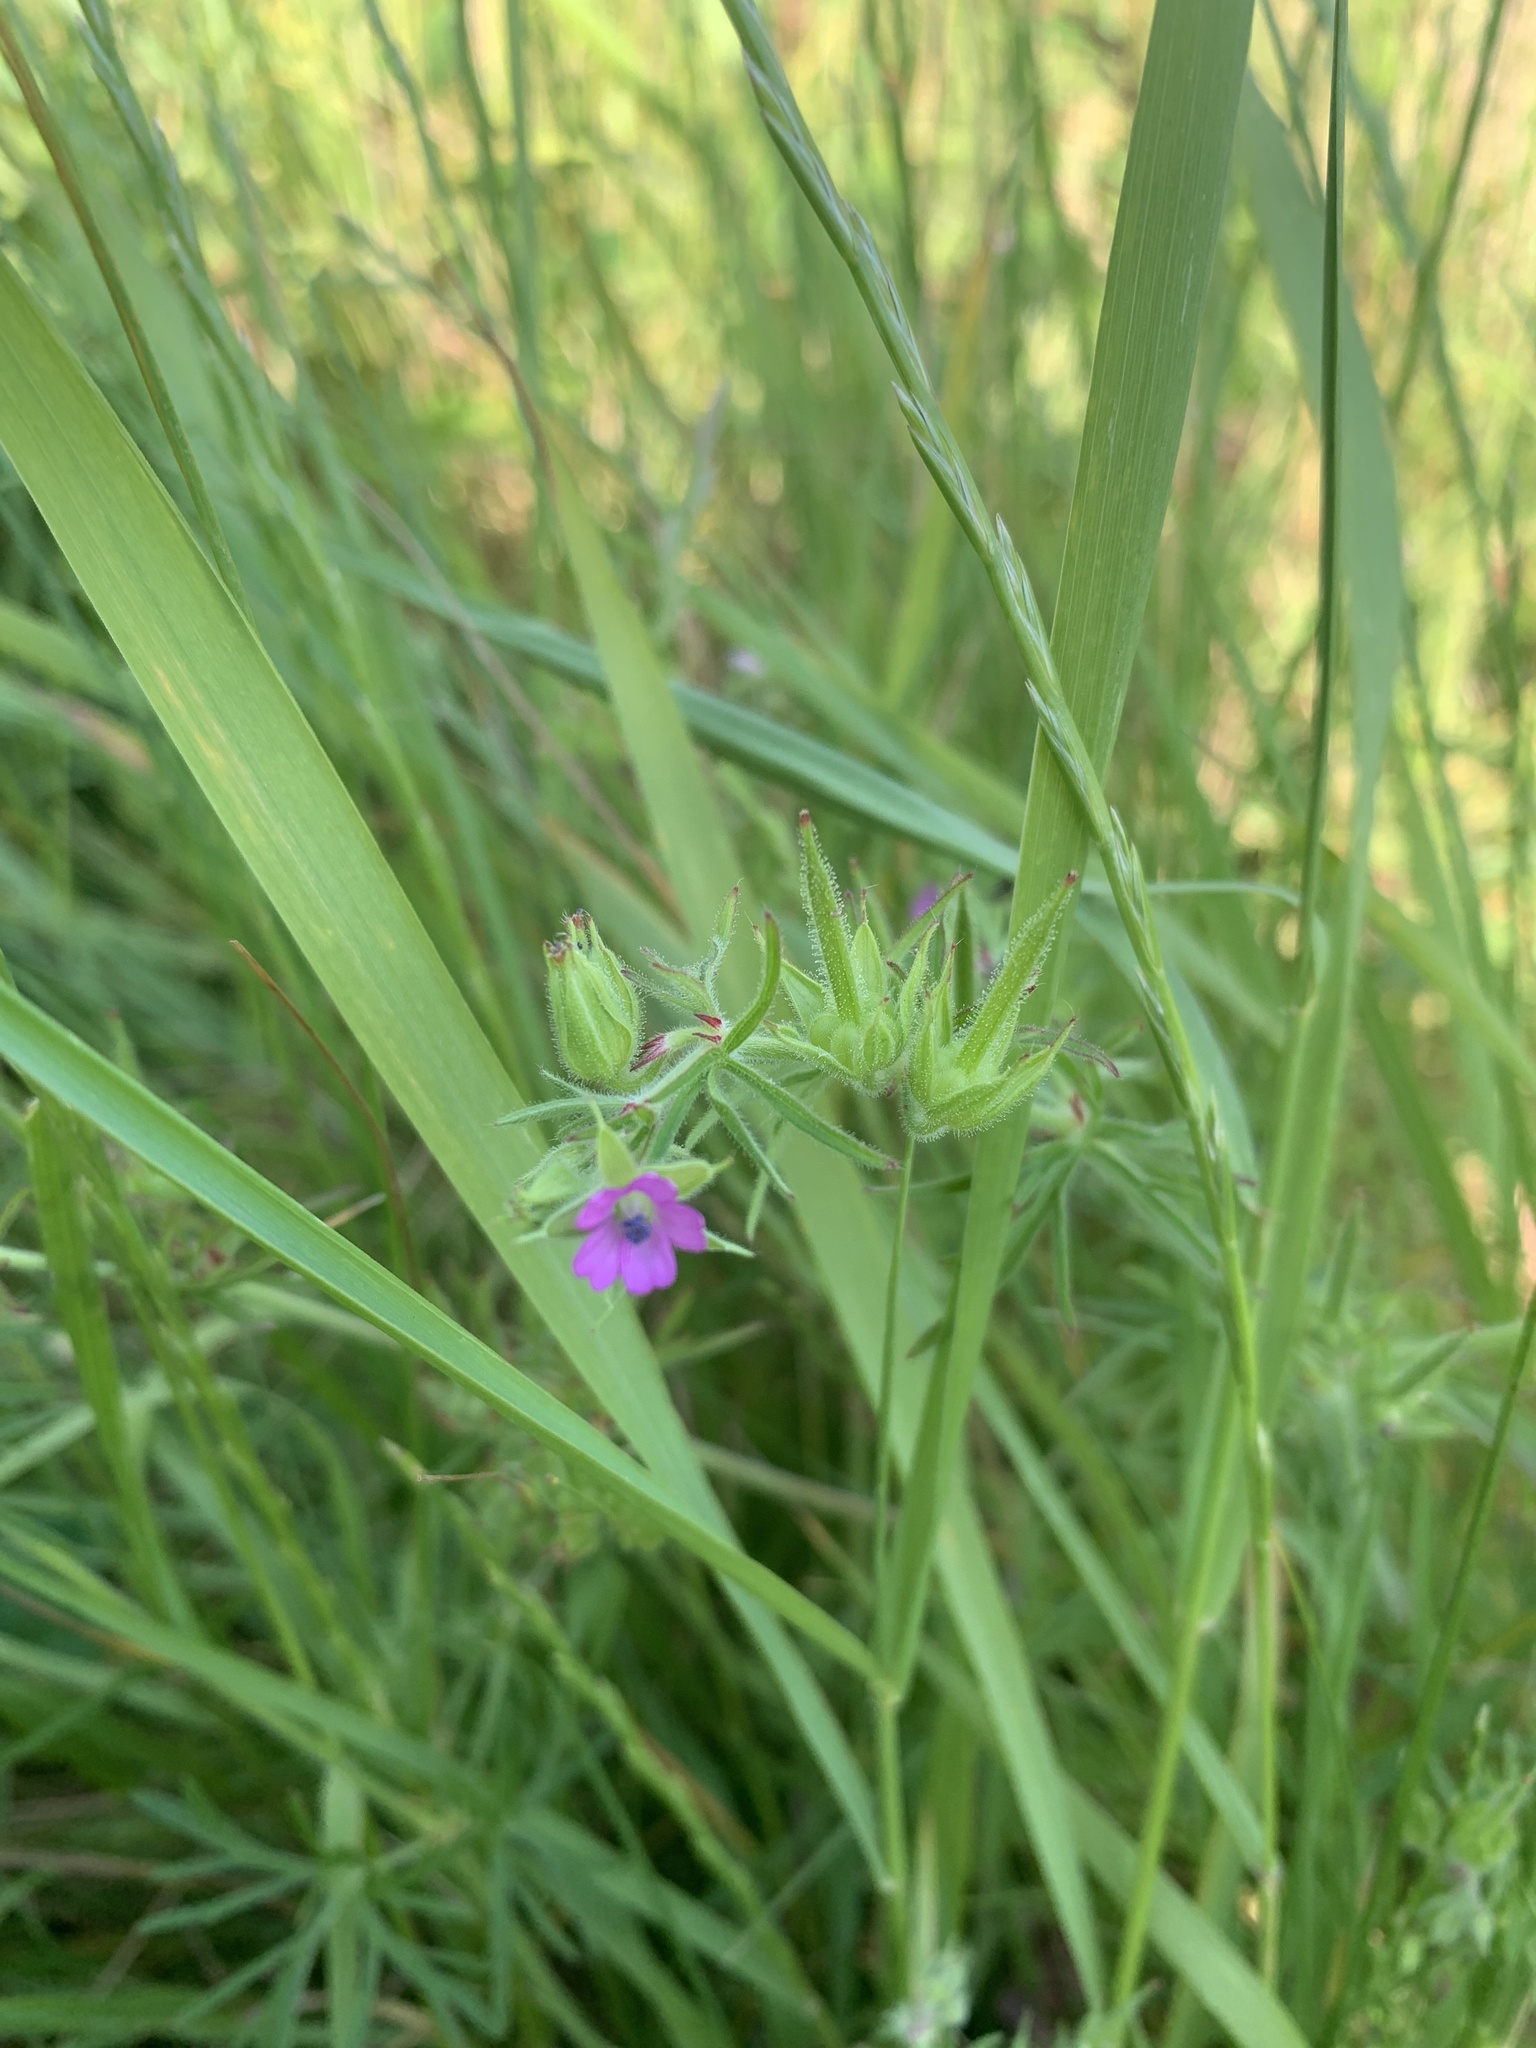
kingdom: Plantae
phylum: Tracheophyta
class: Magnoliopsida
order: Geraniales
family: Geraniaceae
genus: Geranium
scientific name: Geranium dissectum
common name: Cut-leaved crane's-bill
